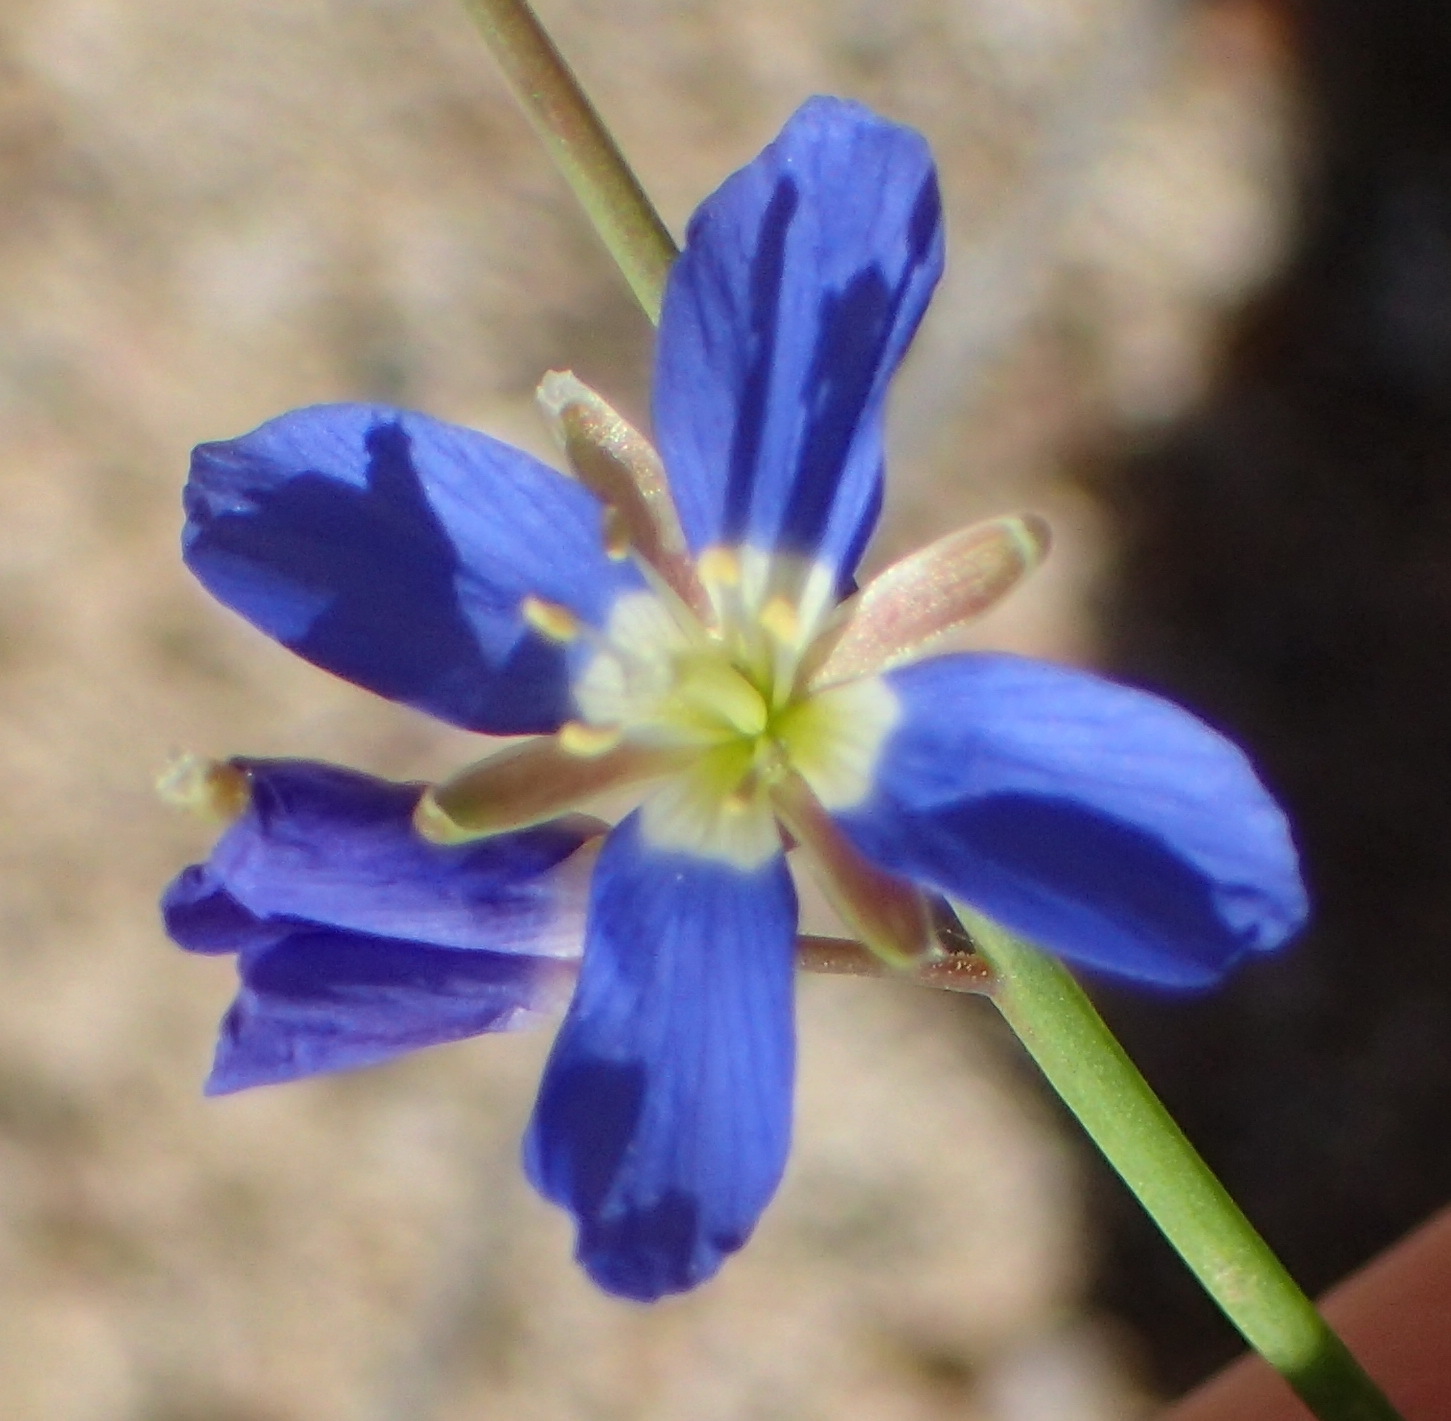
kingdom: Plantae
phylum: Tracheophyta
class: Magnoliopsida
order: Brassicales
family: Brassicaceae
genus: Heliophila
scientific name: Heliophila bulbostyla
